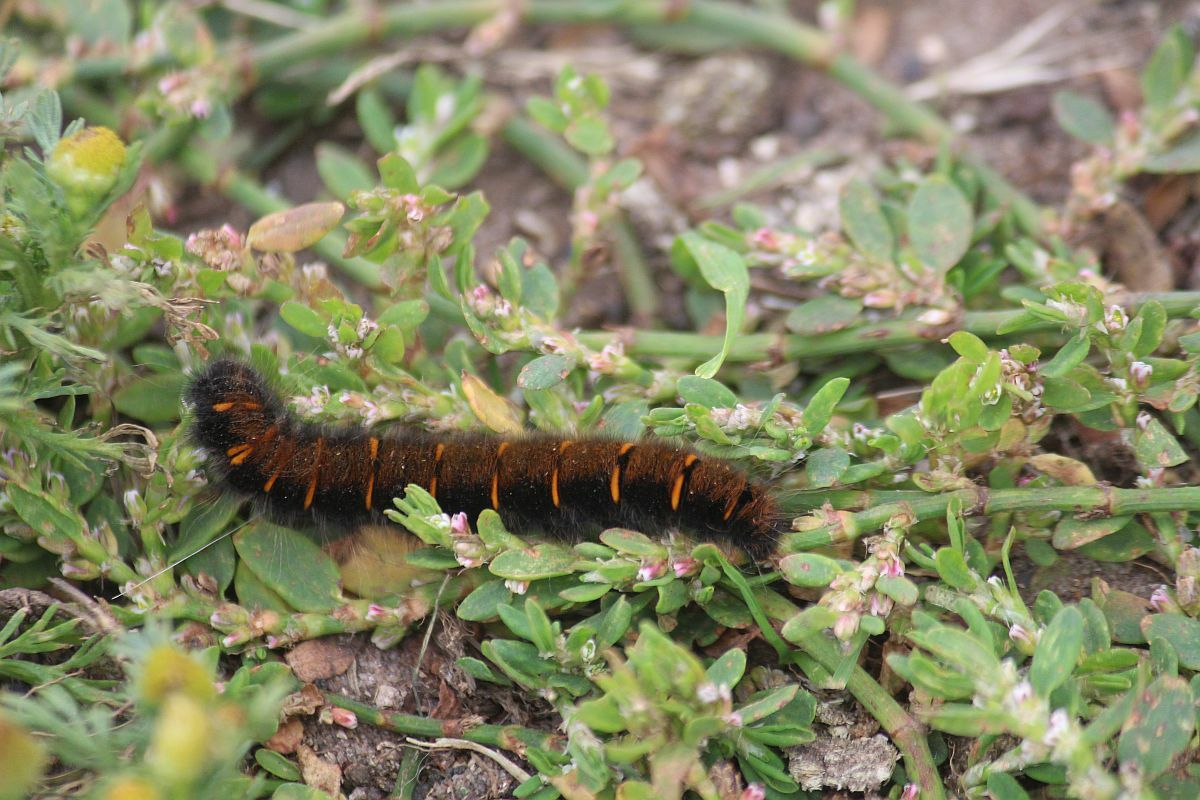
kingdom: Animalia
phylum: Arthropoda
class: Insecta
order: Lepidoptera
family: Lasiocampidae
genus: Macrothylacia
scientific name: Macrothylacia rubi
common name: Fox moth
